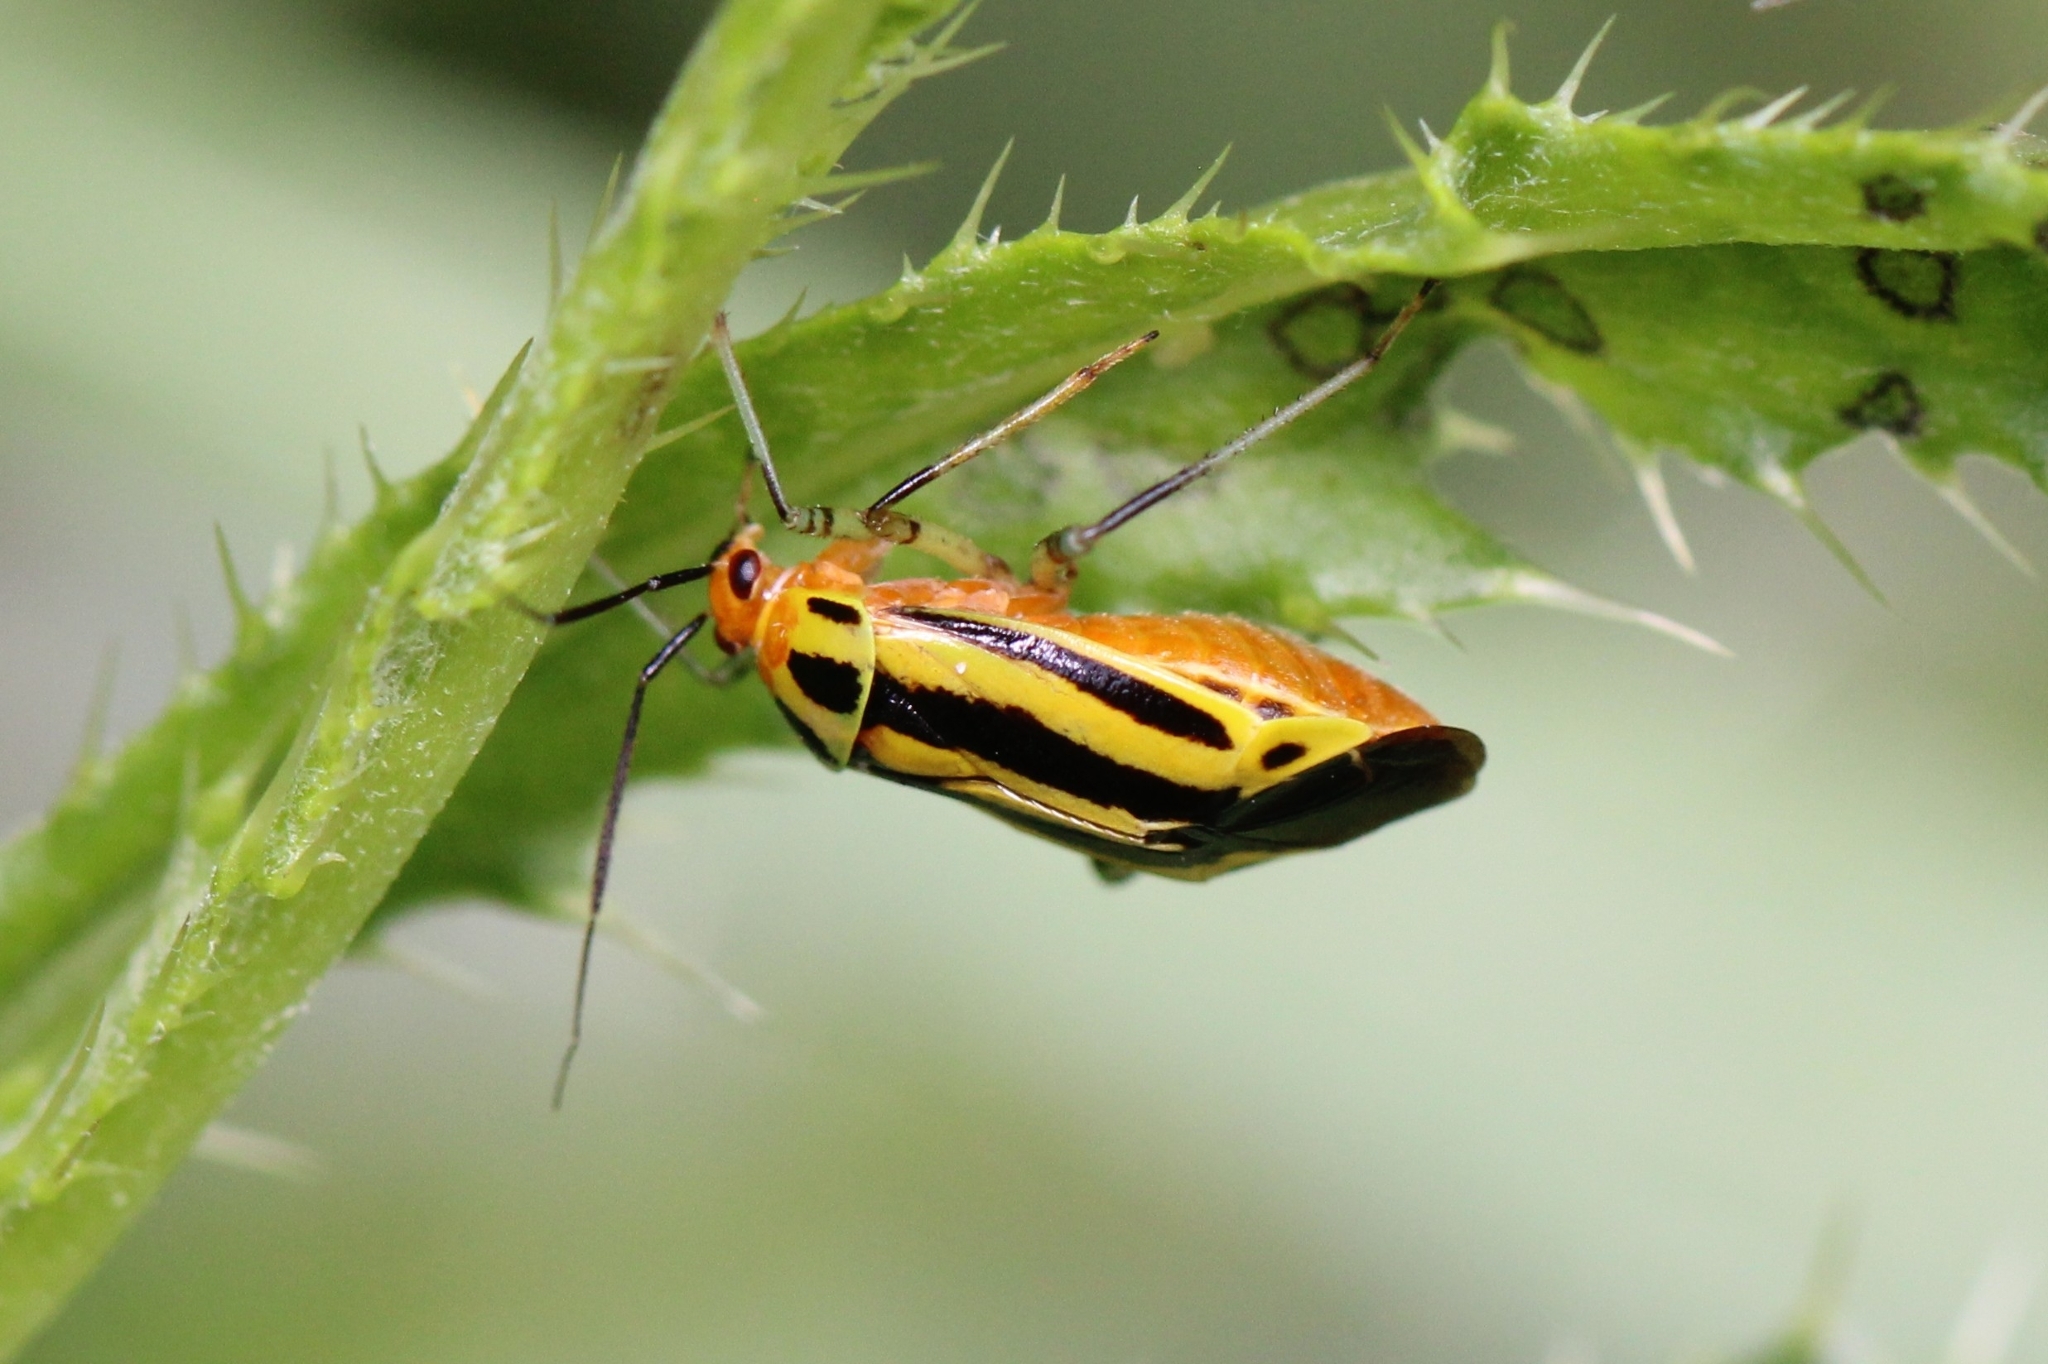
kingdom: Animalia
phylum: Arthropoda
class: Insecta
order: Hemiptera
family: Miridae
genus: Poecilocapsus
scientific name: Poecilocapsus lineatus
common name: Four-lined plant bug
